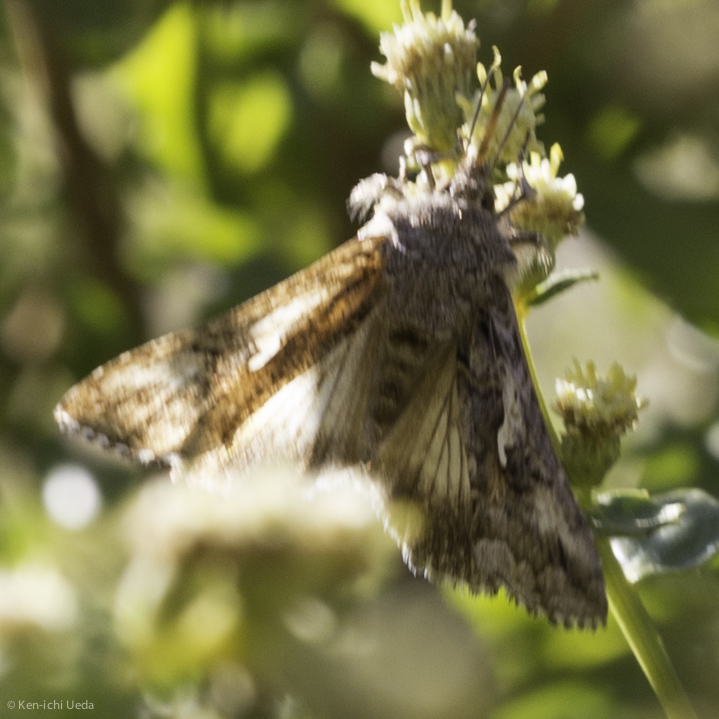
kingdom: Animalia
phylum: Arthropoda
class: Insecta
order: Lepidoptera
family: Noctuidae
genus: Autographa
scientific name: Autographa californica
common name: Alfalfa looper
